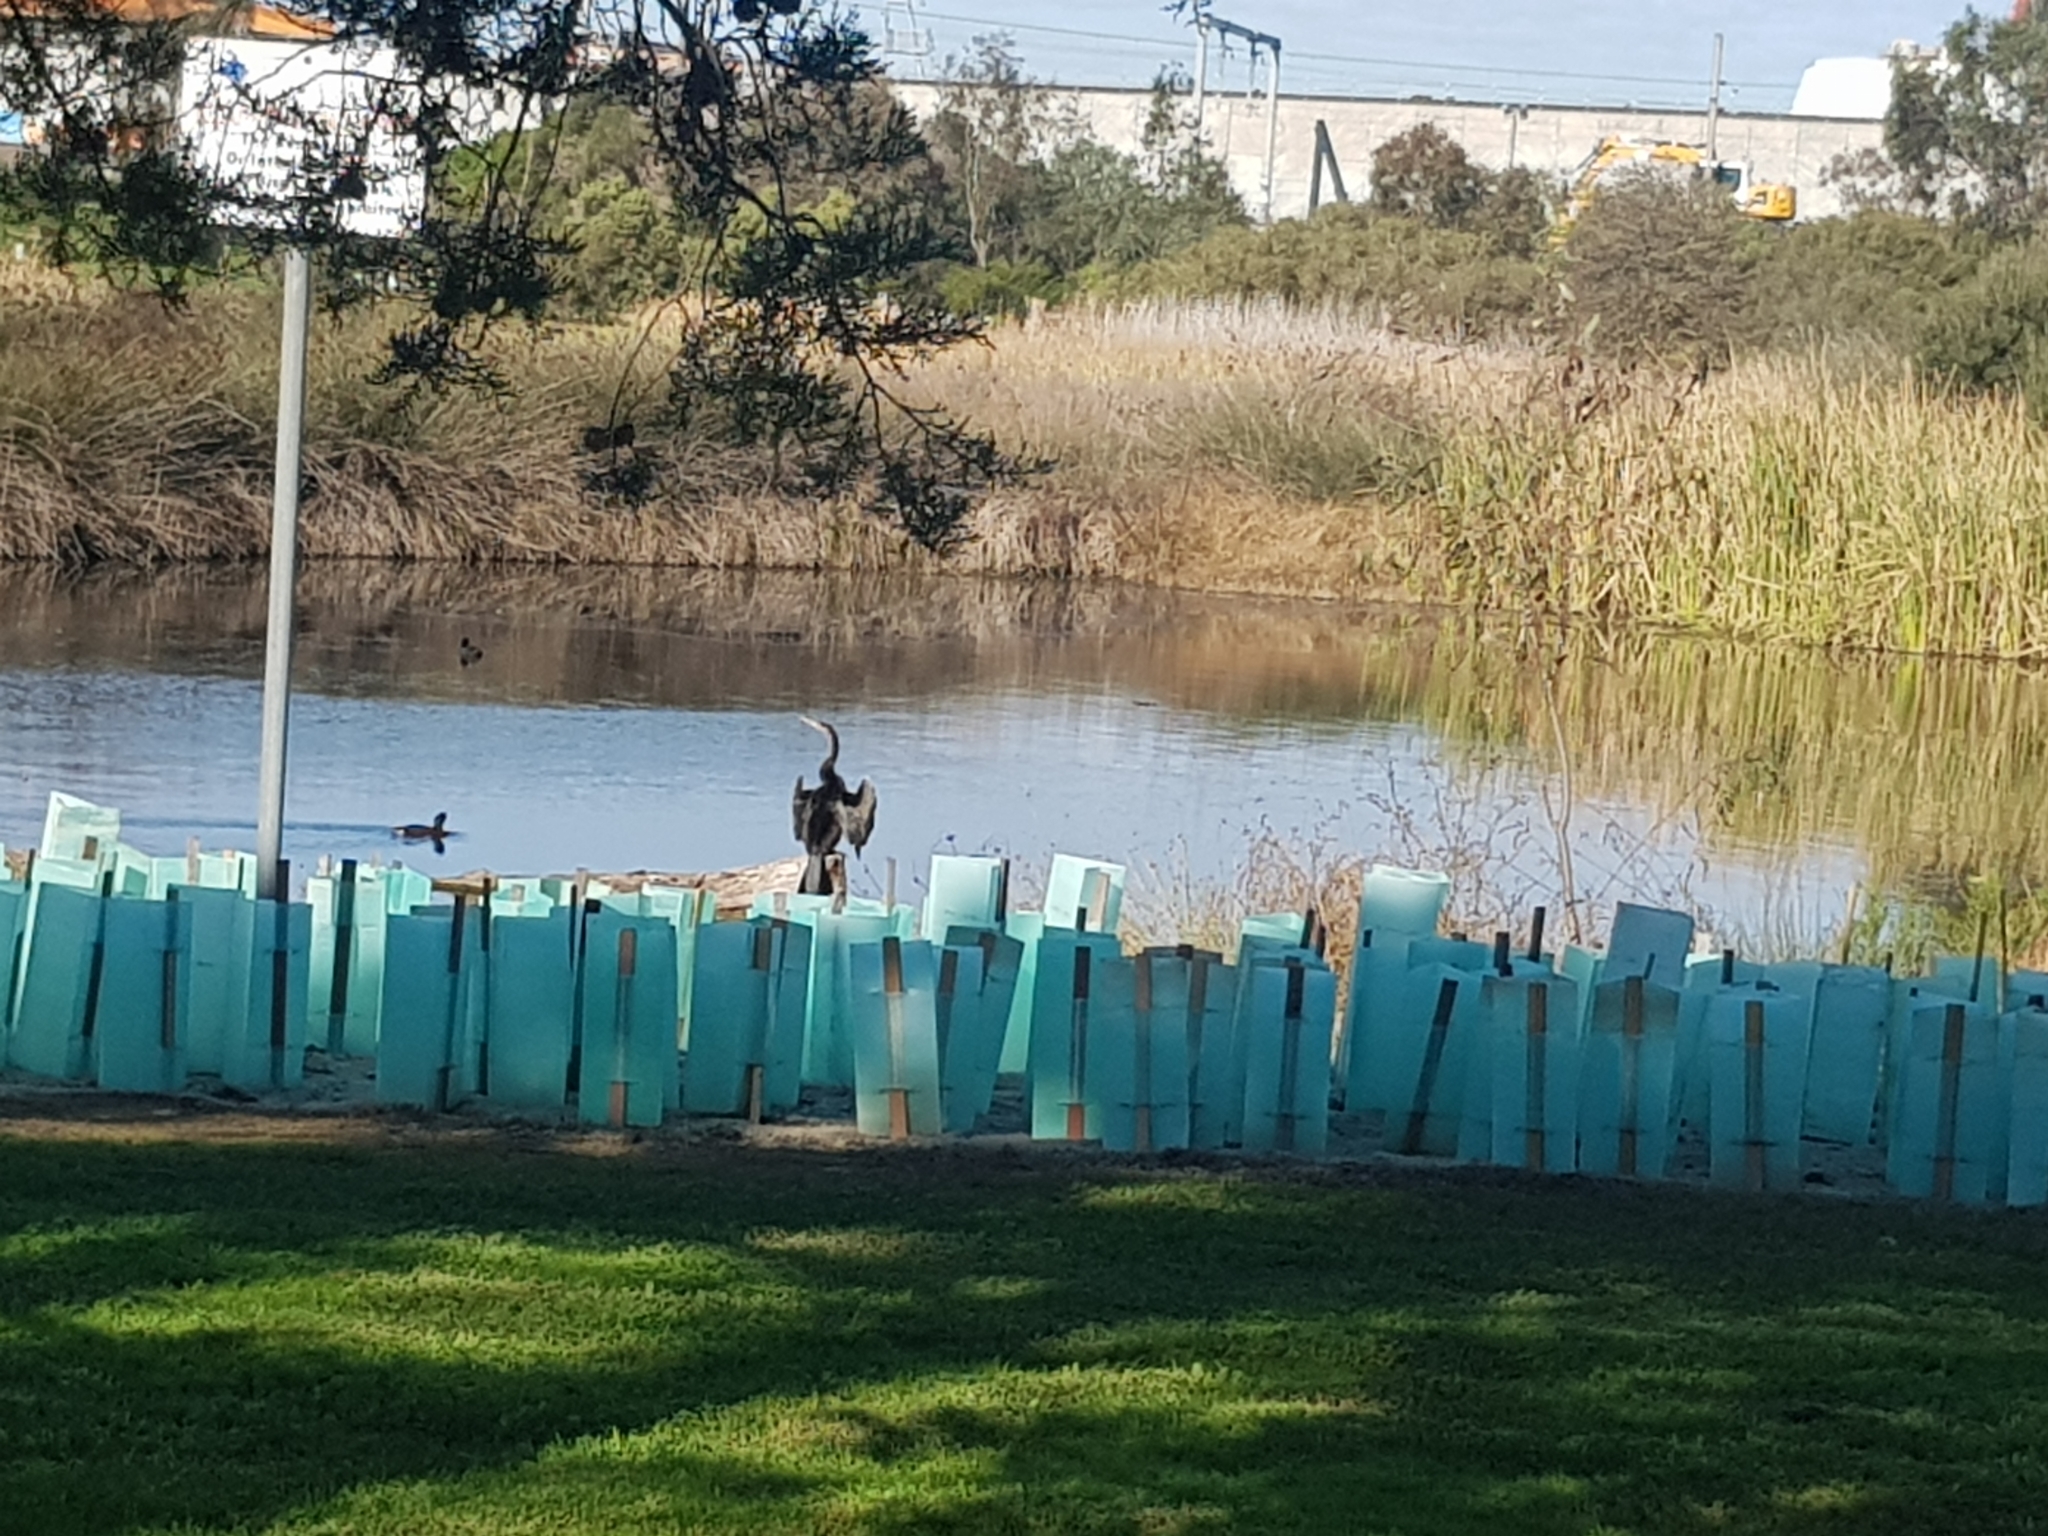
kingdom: Animalia
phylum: Chordata
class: Aves
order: Suliformes
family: Anhingidae
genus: Anhinga
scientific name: Anhinga novaehollandiae
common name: Australasian darter
